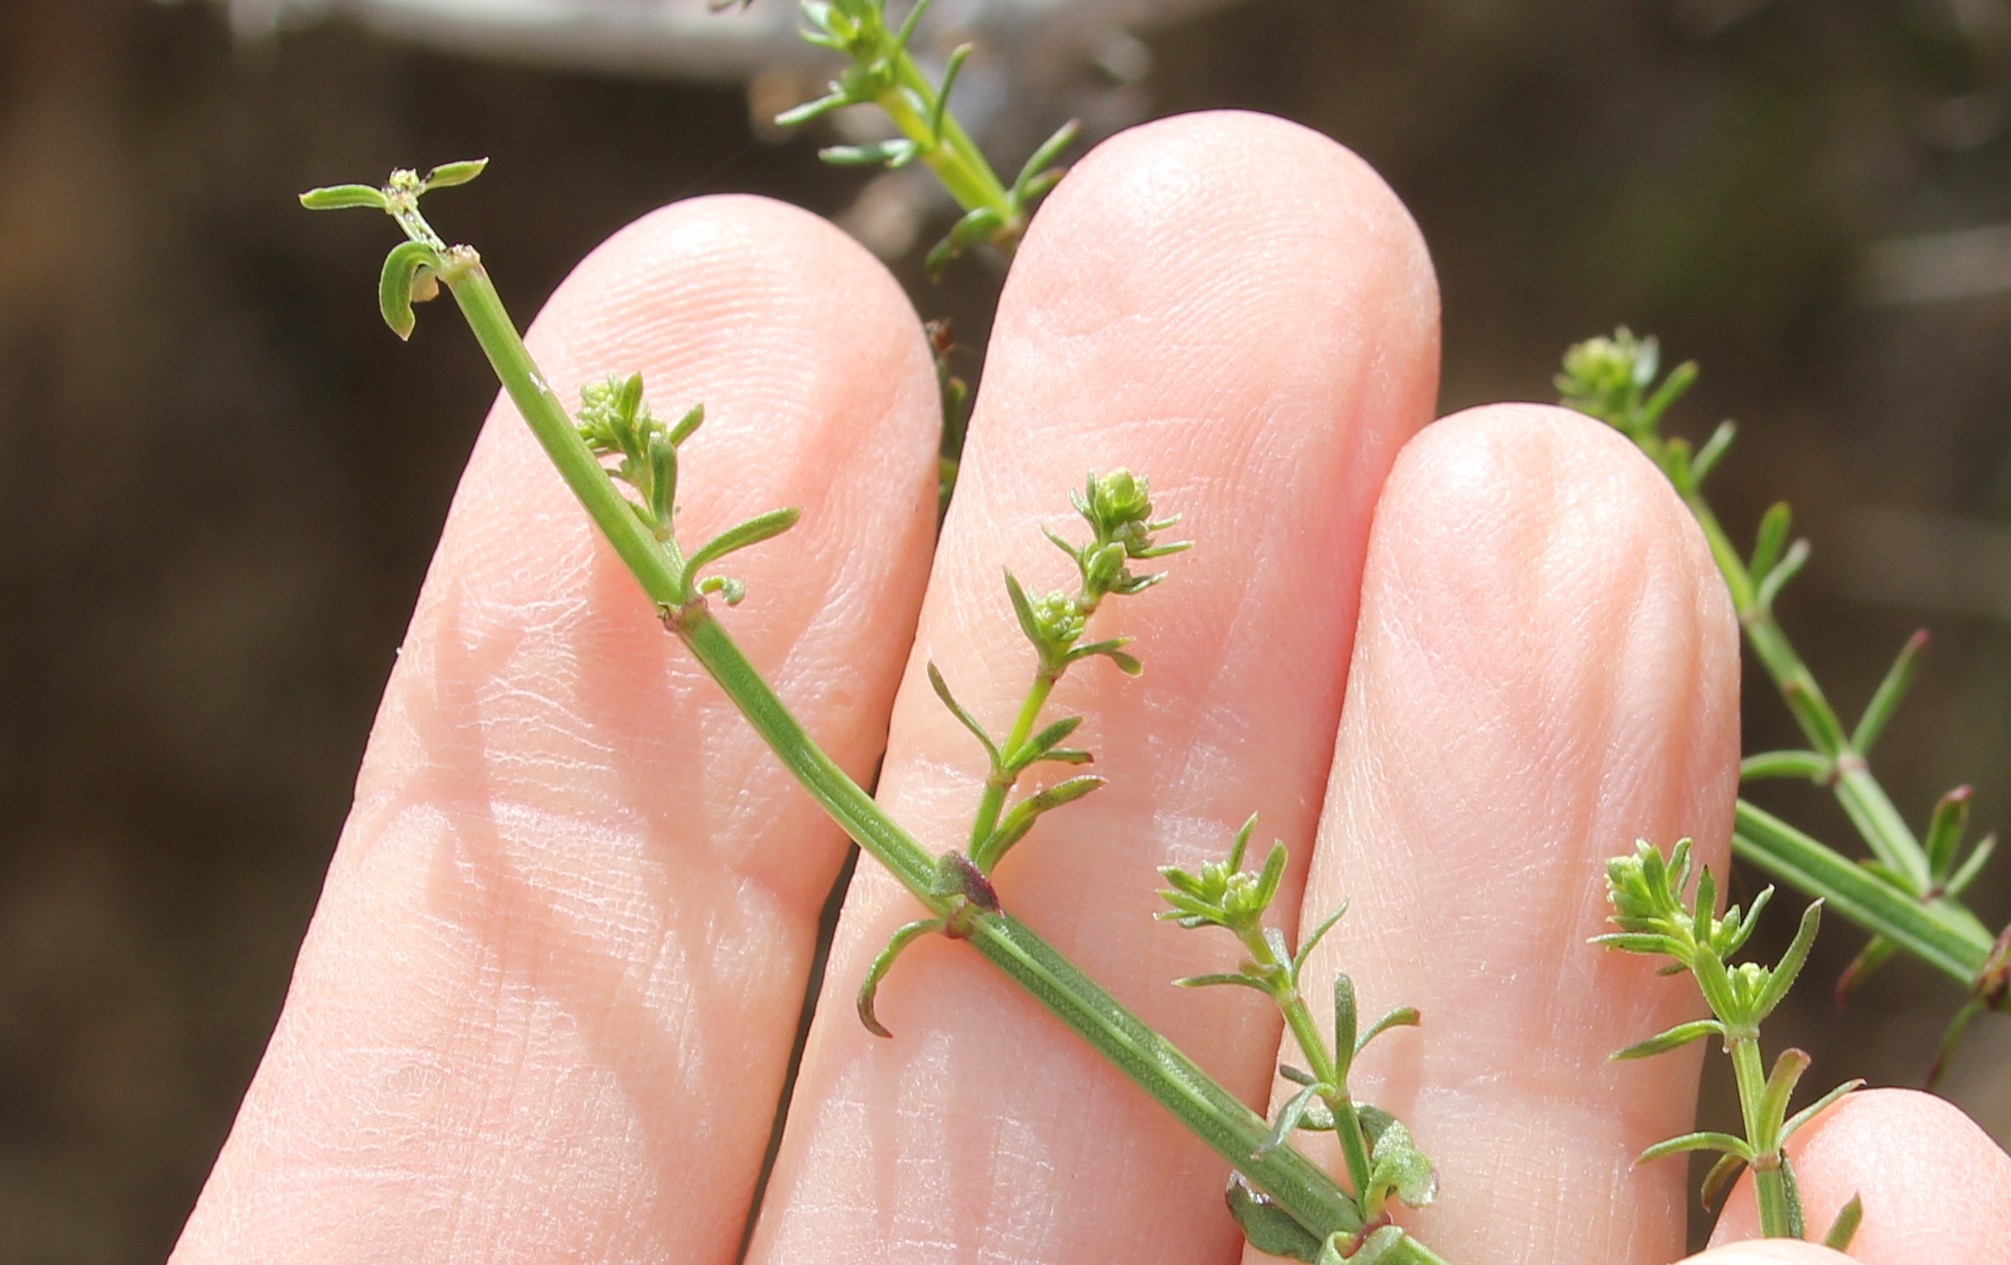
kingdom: Plantae
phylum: Tracheophyta
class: Magnoliopsida
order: Gentianales
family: Rubiaceae
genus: Galium
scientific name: Galium angustifolium
